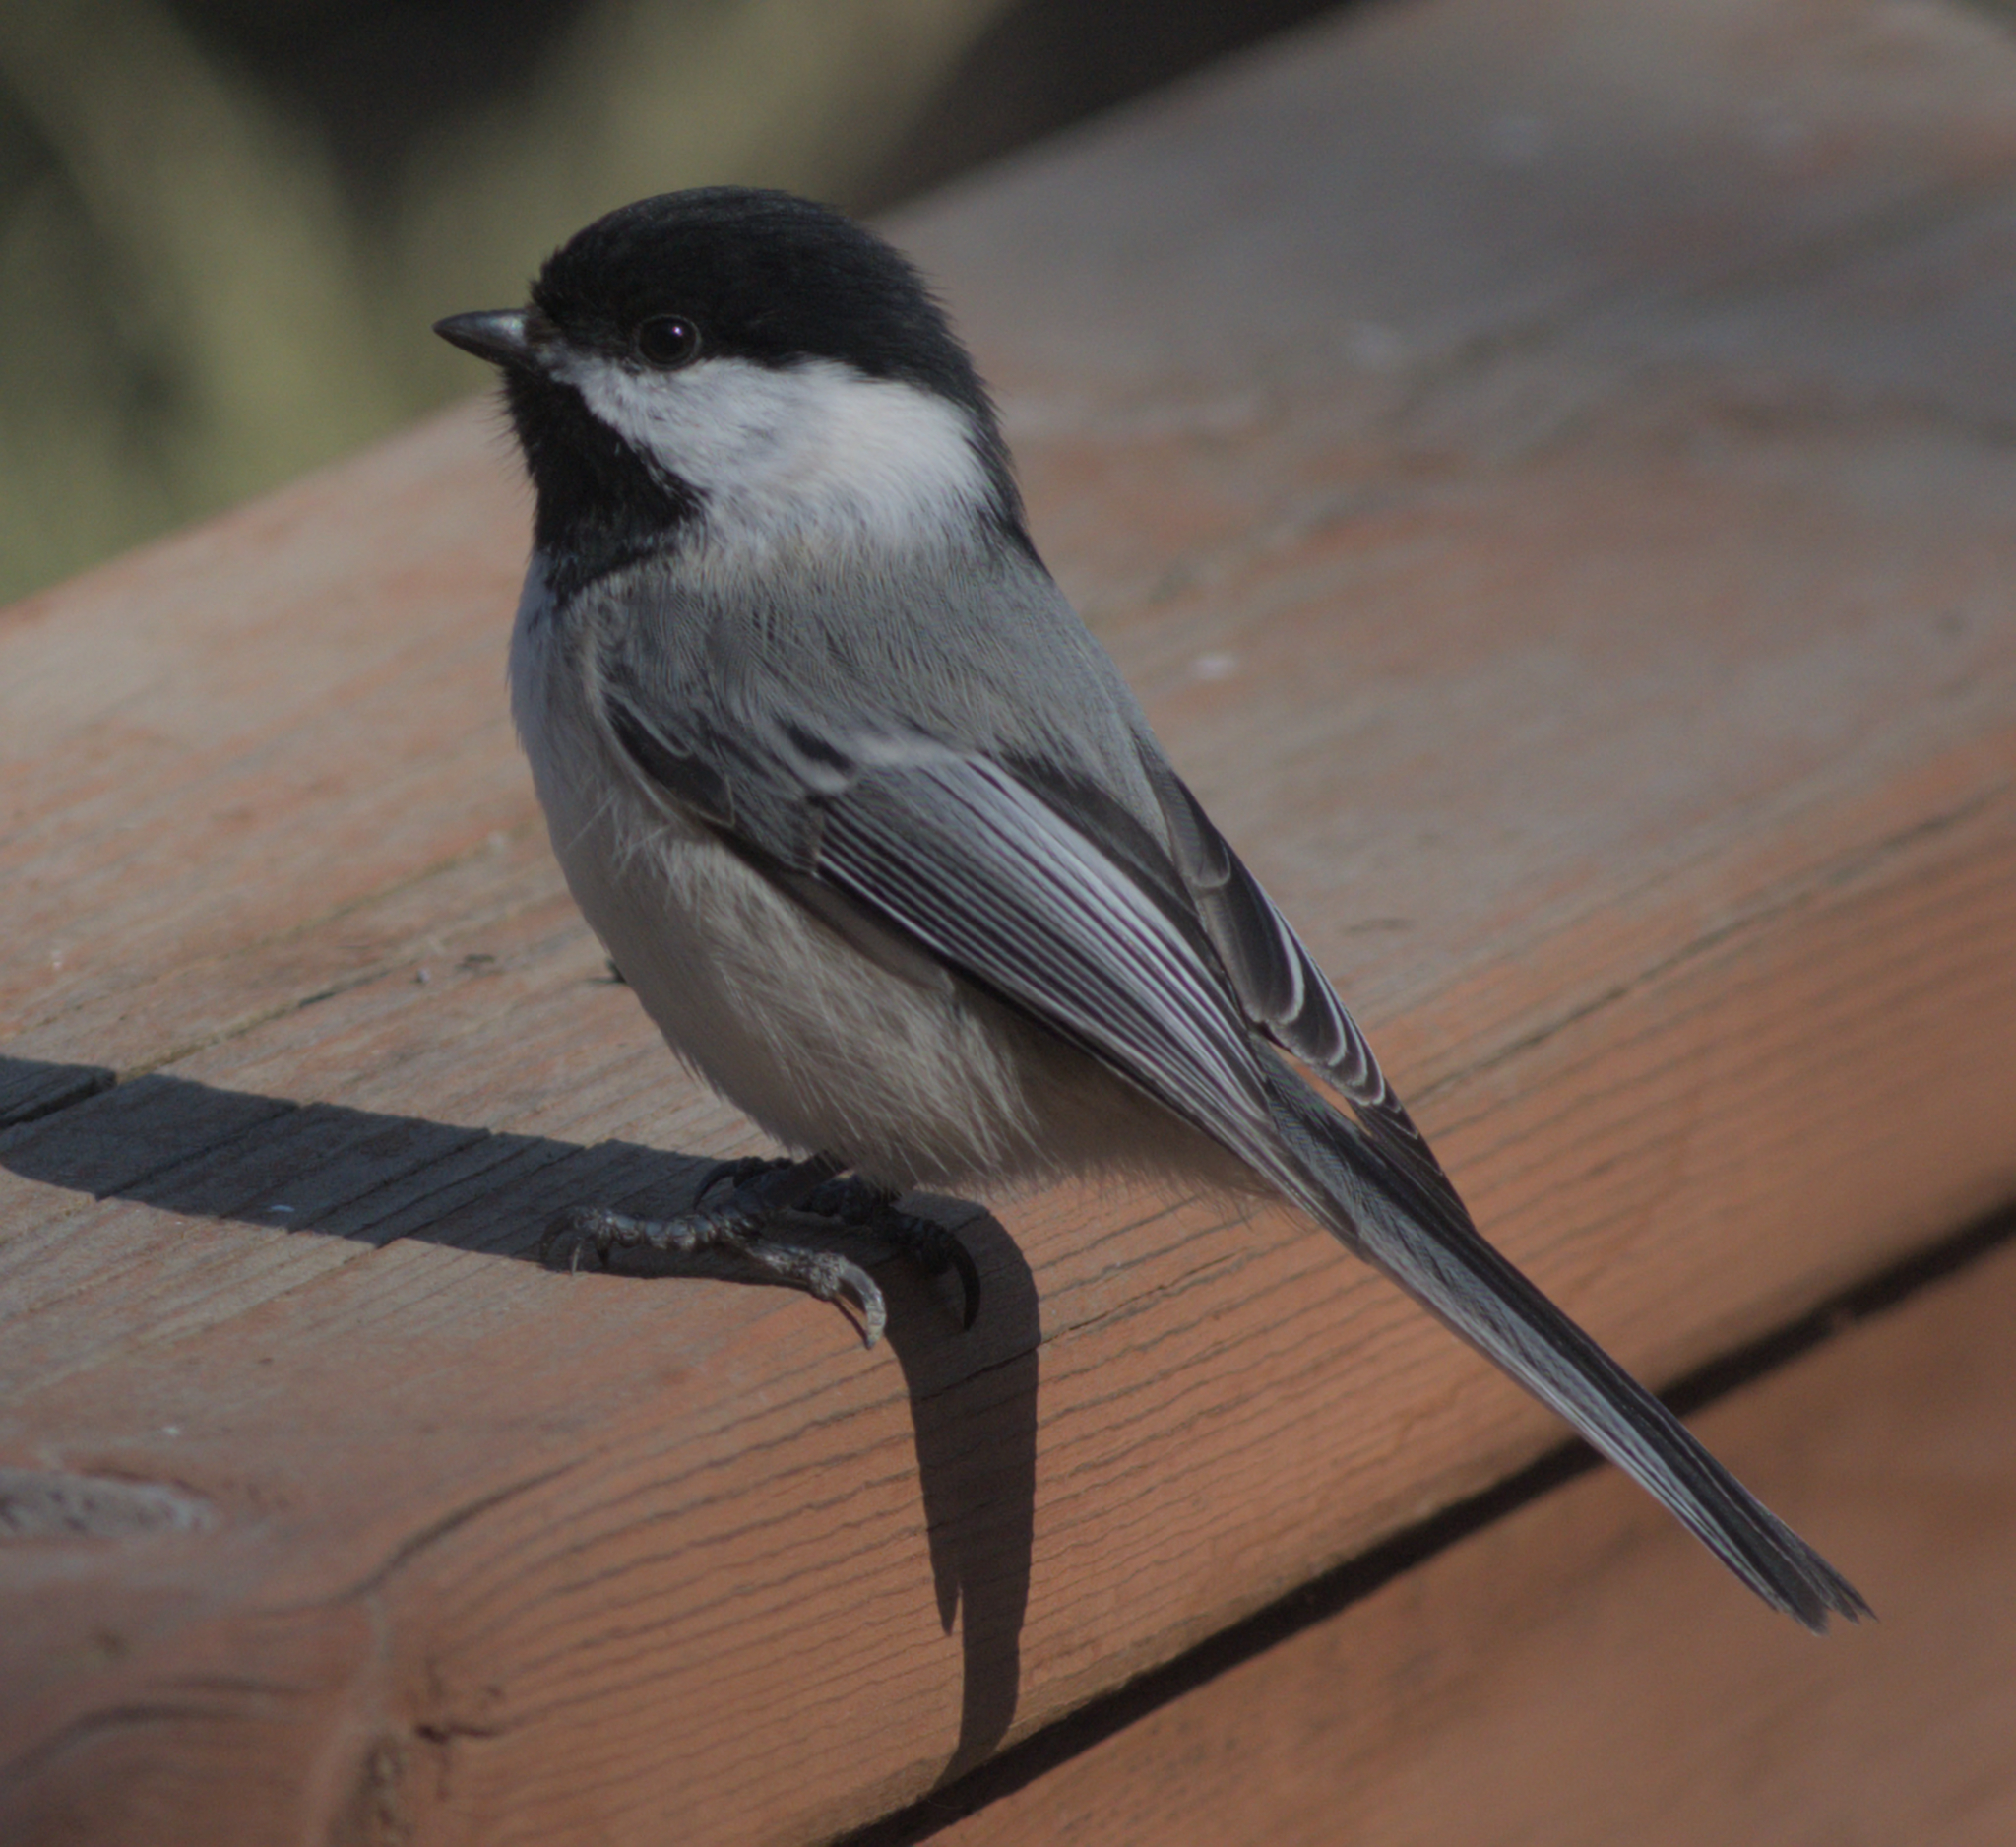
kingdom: Animalia
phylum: Chordata
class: Aves
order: Passeriformes
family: Paridae
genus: Poecile
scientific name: Poecile atricapillus
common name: Black-capped chickadee
